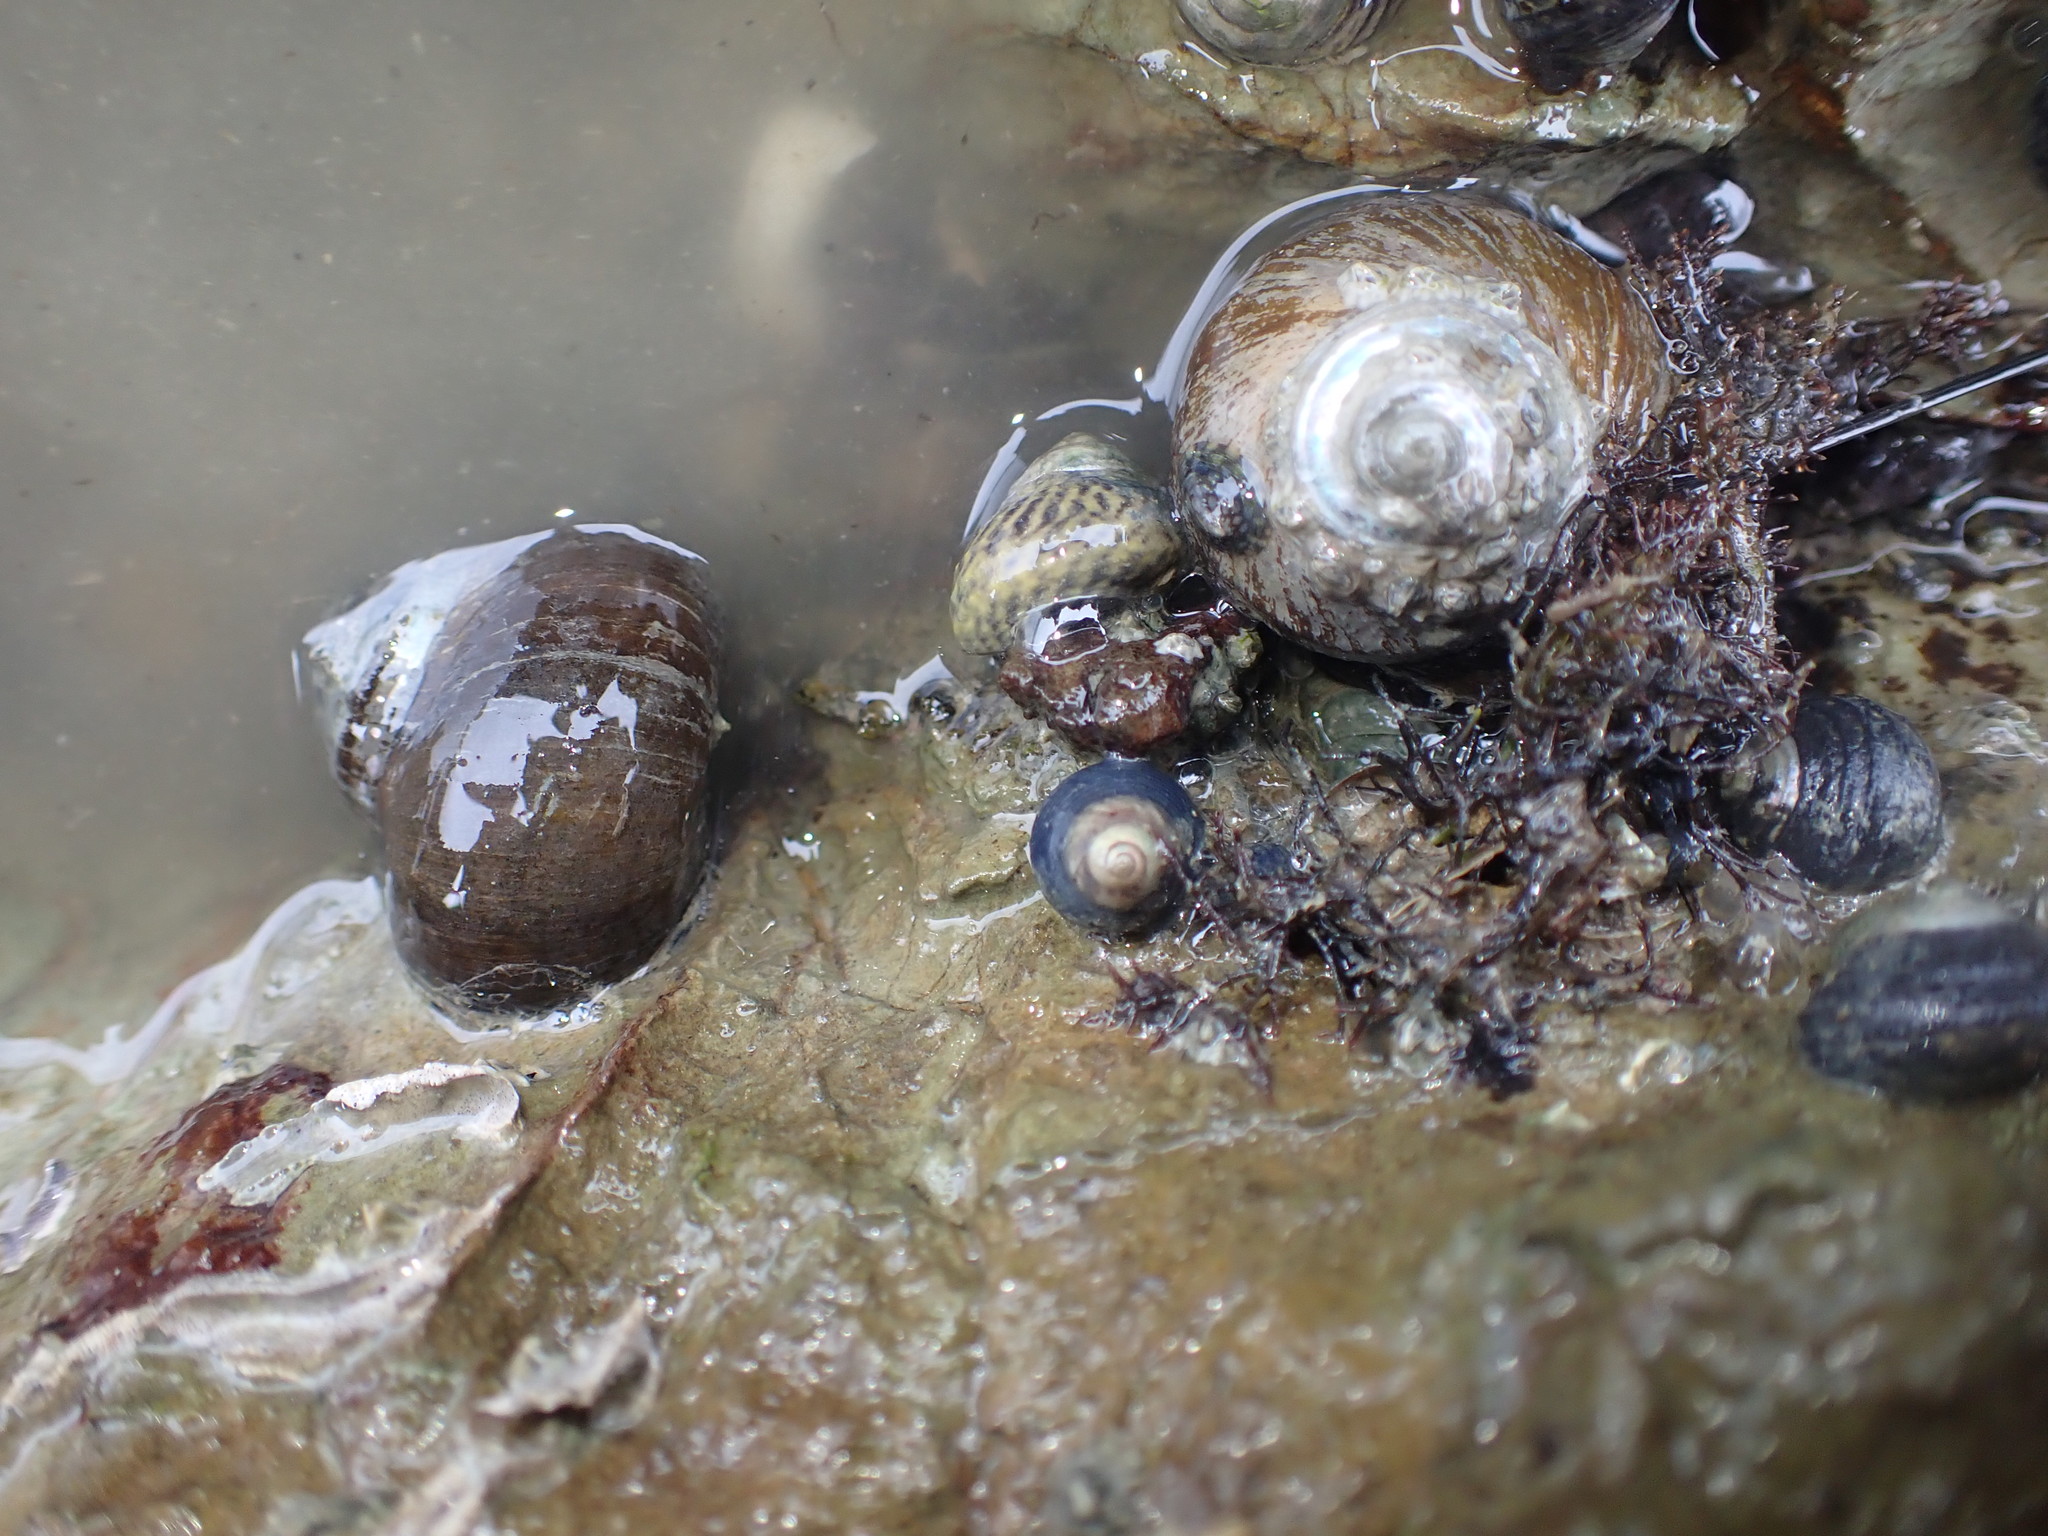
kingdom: Animalia
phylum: Mollusca
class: Gastropoda
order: Trochida
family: Turbinidae
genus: Lunella
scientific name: Lunella smaragda
